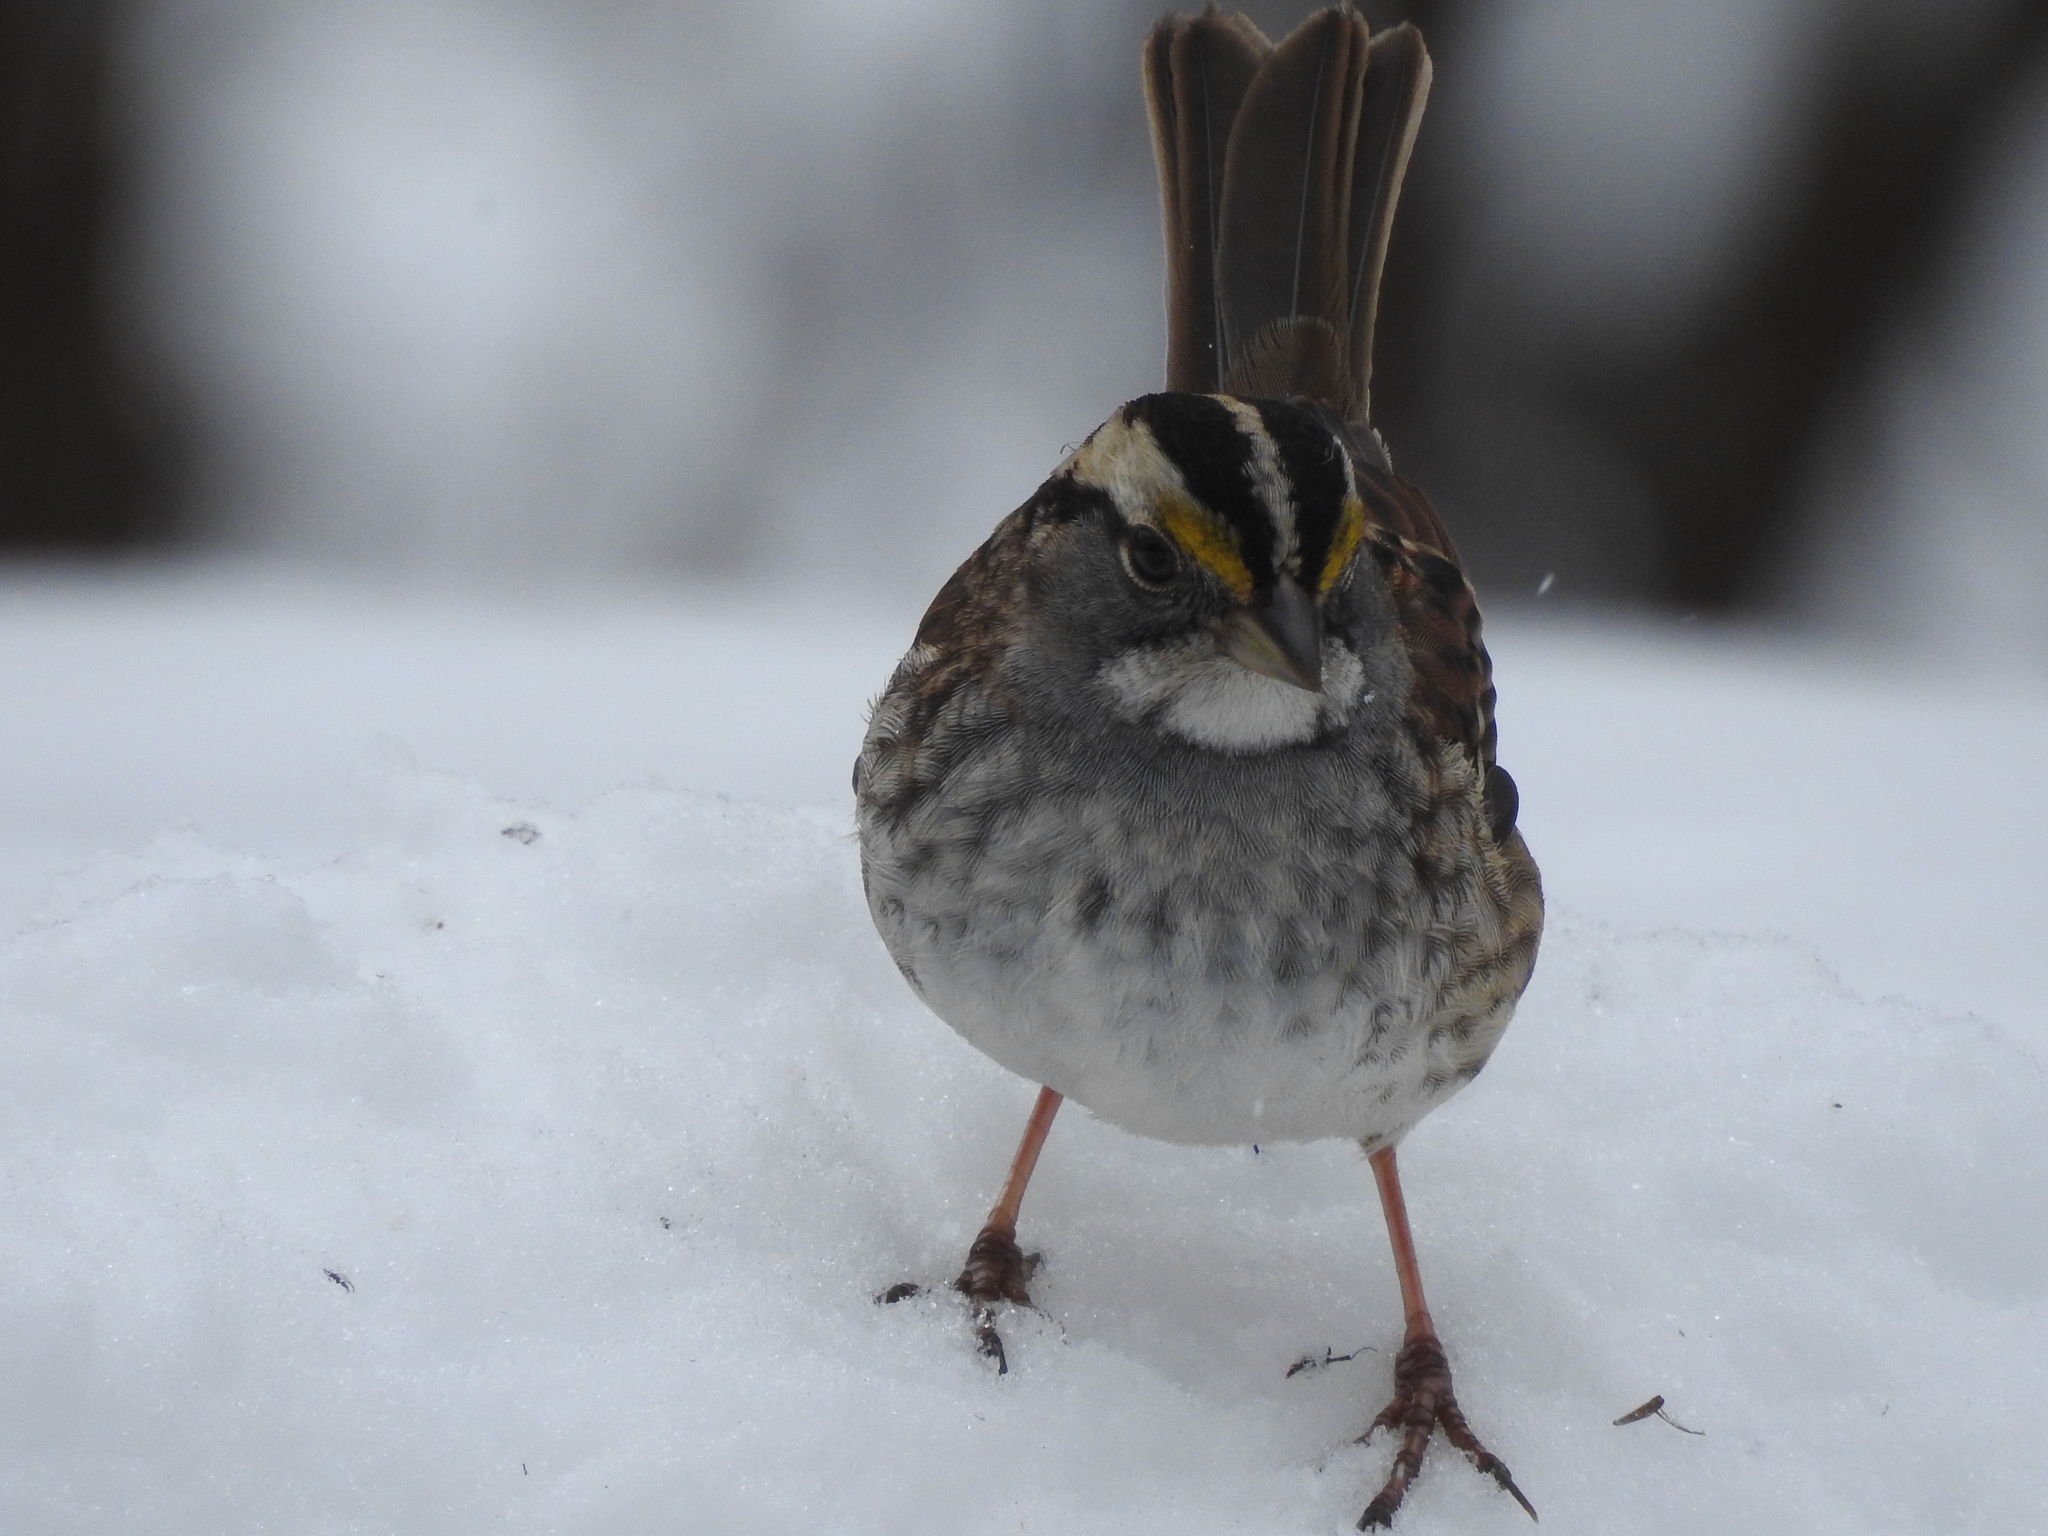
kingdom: Animalia
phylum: Chordata
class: Aves
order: Passeriformes
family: Passerellidae
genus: Zonotrichia
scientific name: Zonotrichia albicollis
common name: White-throated sparrow
